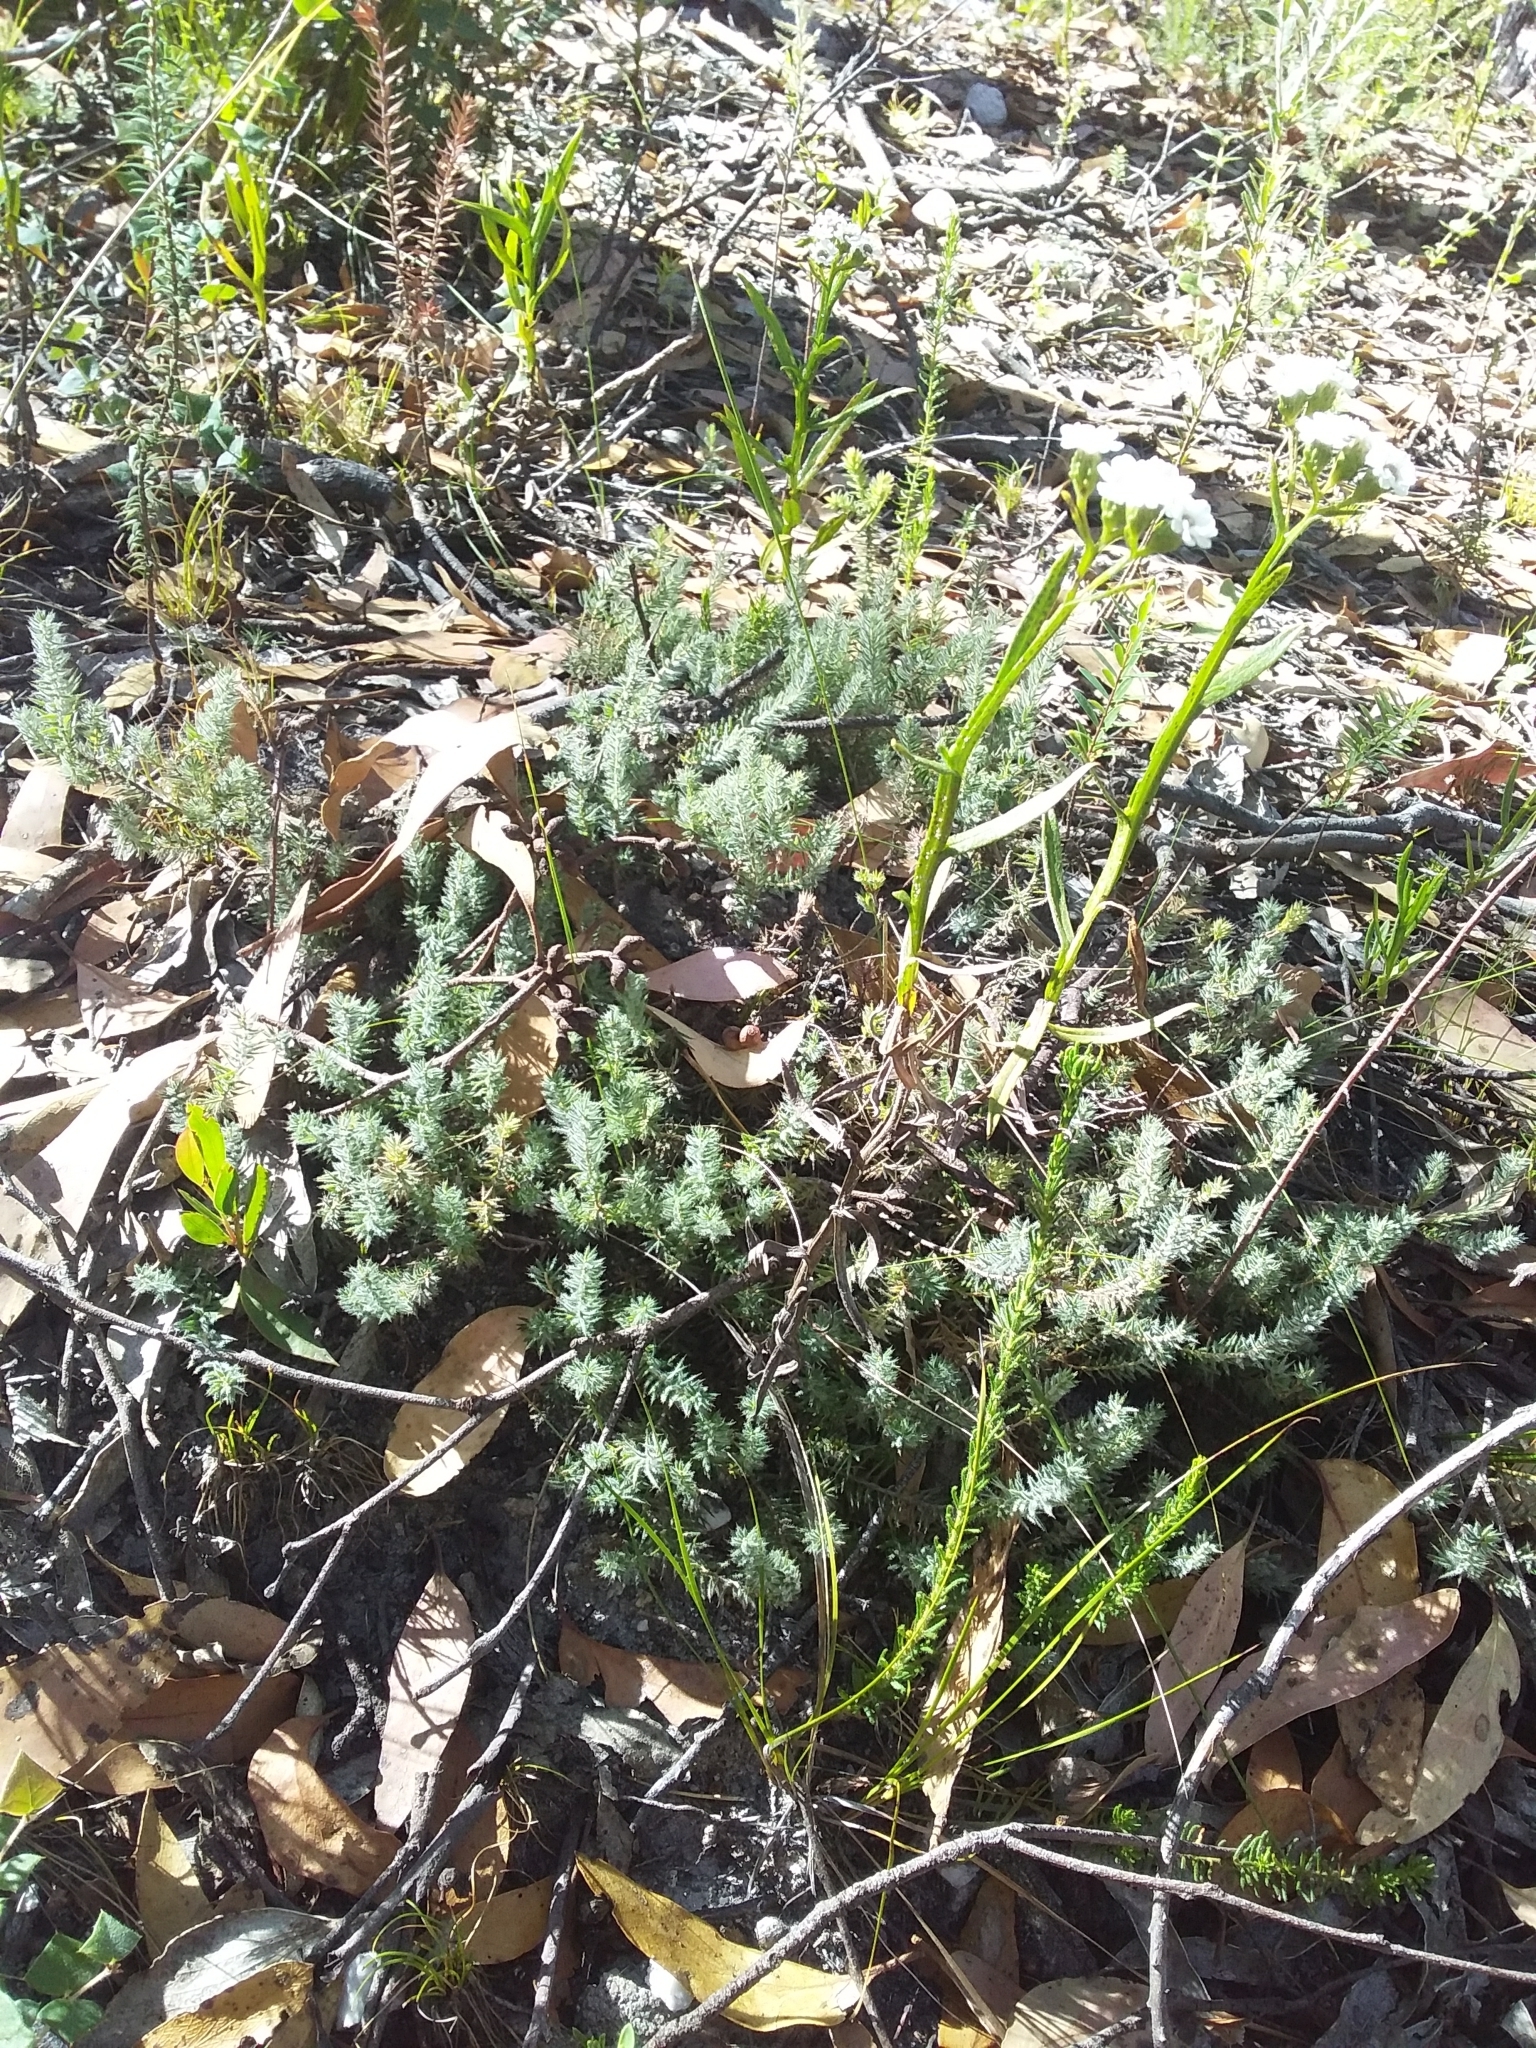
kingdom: Plantae
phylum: Tracheophyta
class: Magnoliopsida
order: Ericales
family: Ericaceae
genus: Acrotriche
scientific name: Acrotriche serrulata
